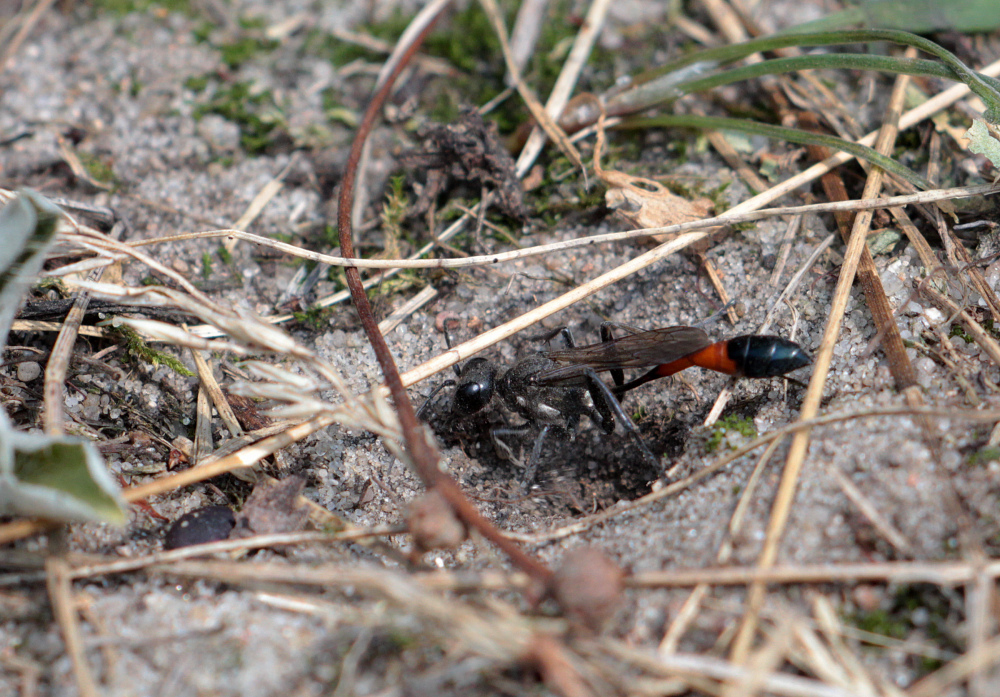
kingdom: Animalia
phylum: Arthropoda
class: Insecta
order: Hymenoptera
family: Sphecidae
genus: Ammophila
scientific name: Ammophila sabulosa
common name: Red banded sand wasp
